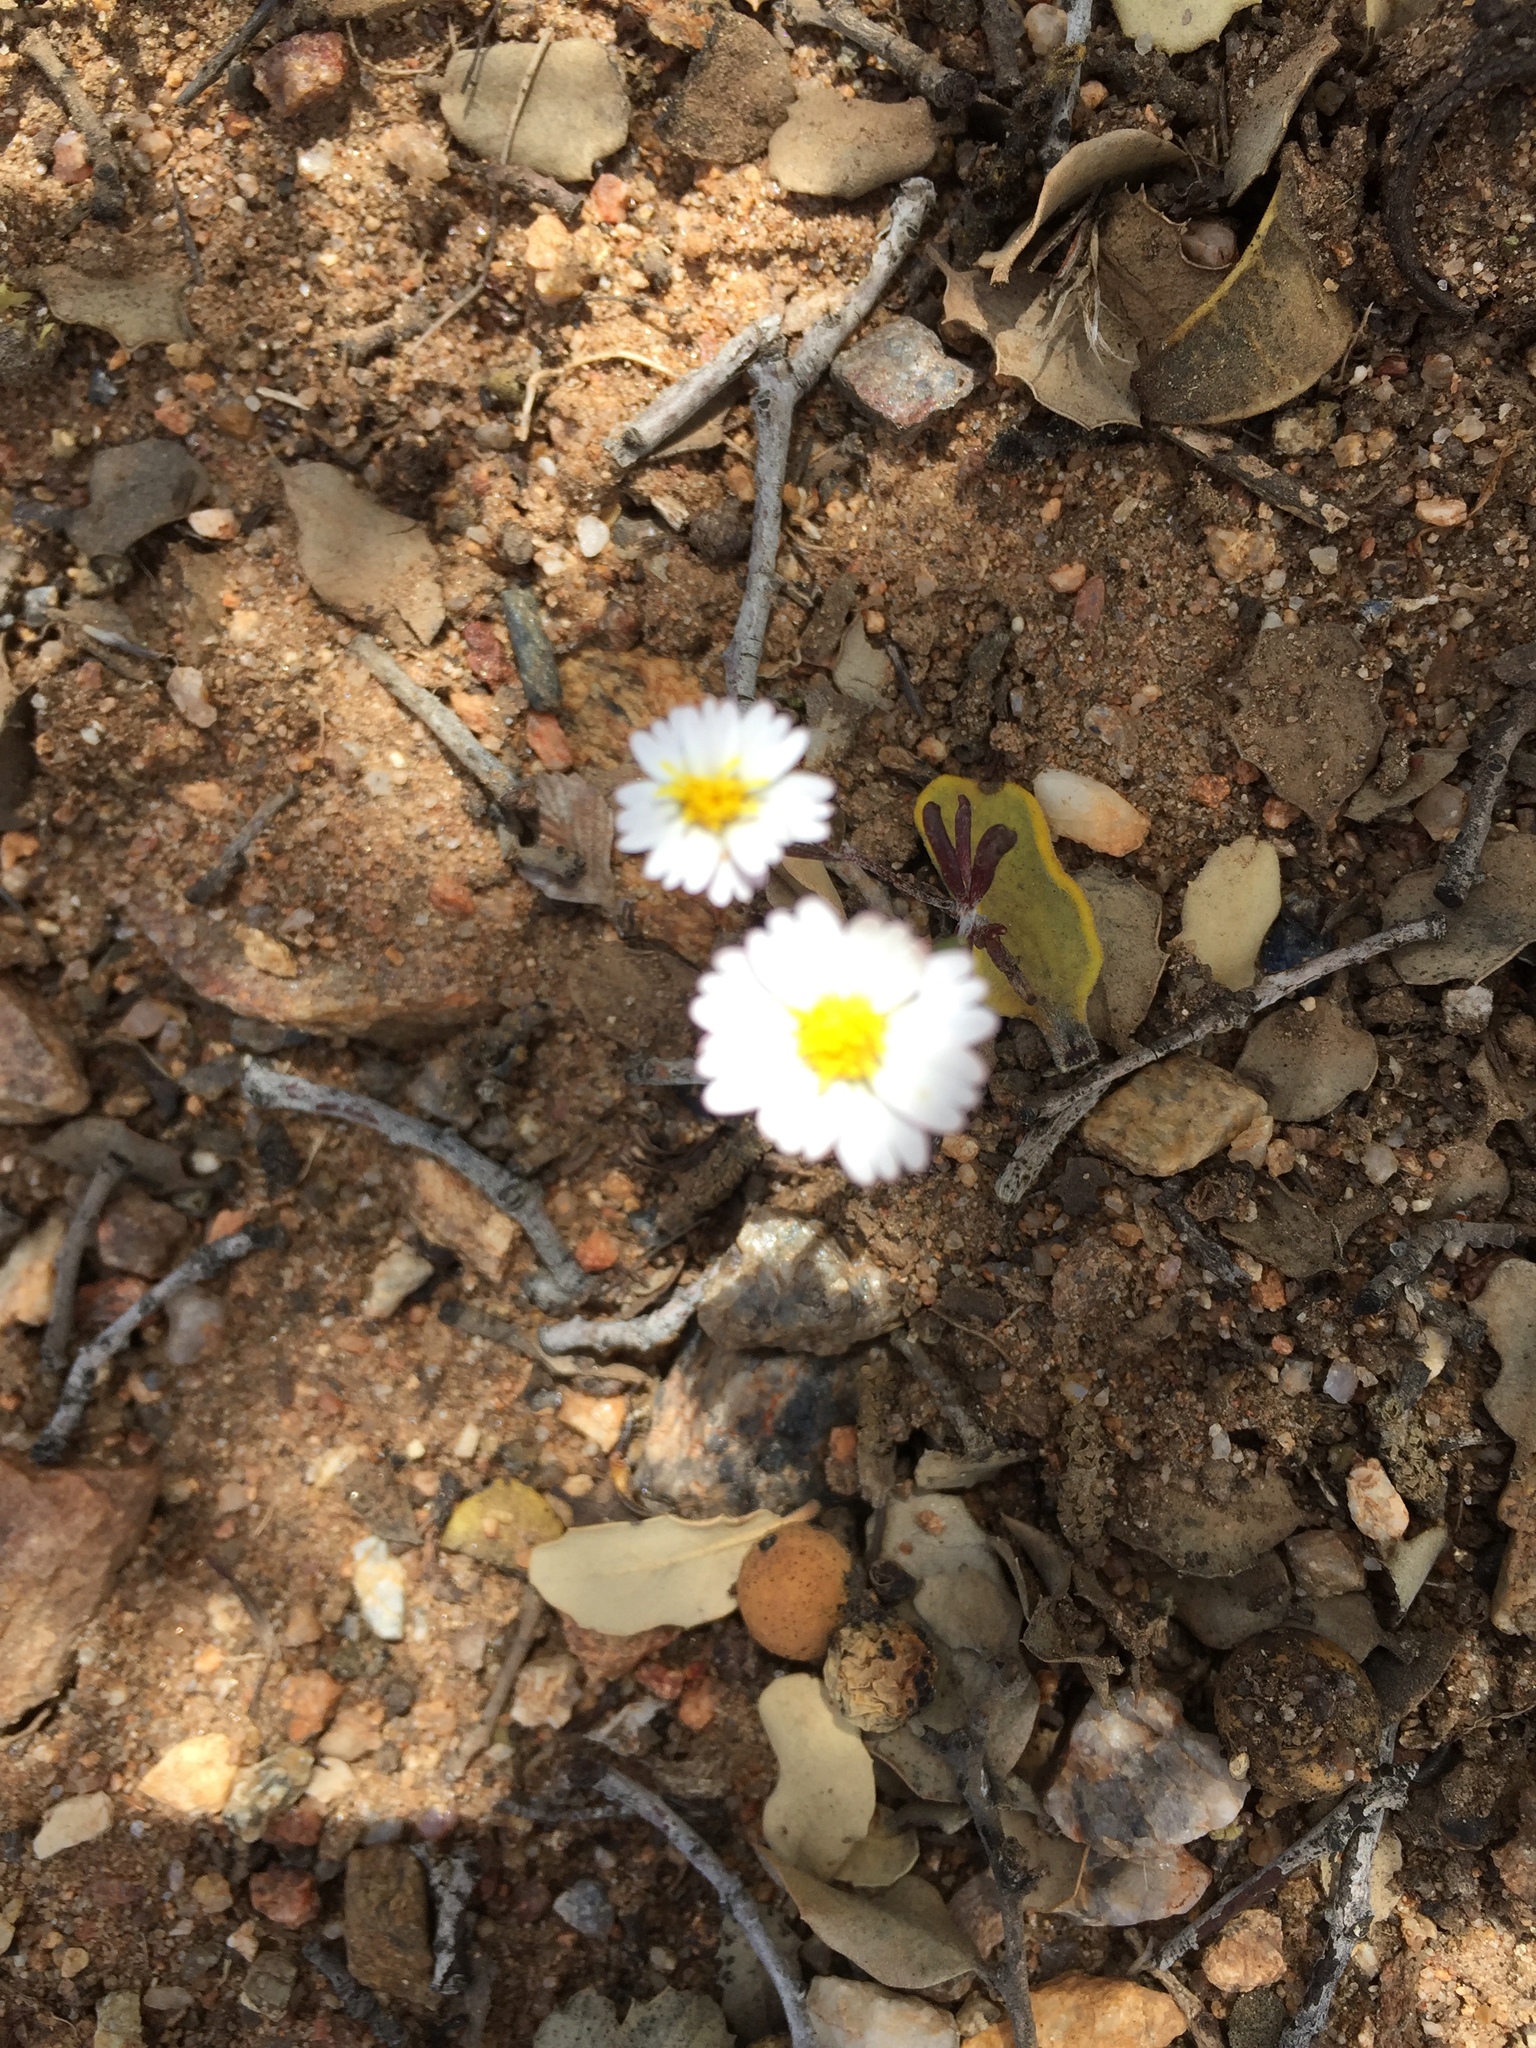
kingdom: Plantae
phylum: Tracheophyta
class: Magnoliopsida
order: Asterales
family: Asteraceae
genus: Syntrichopappus
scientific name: Syntrichopappus lemmonii
